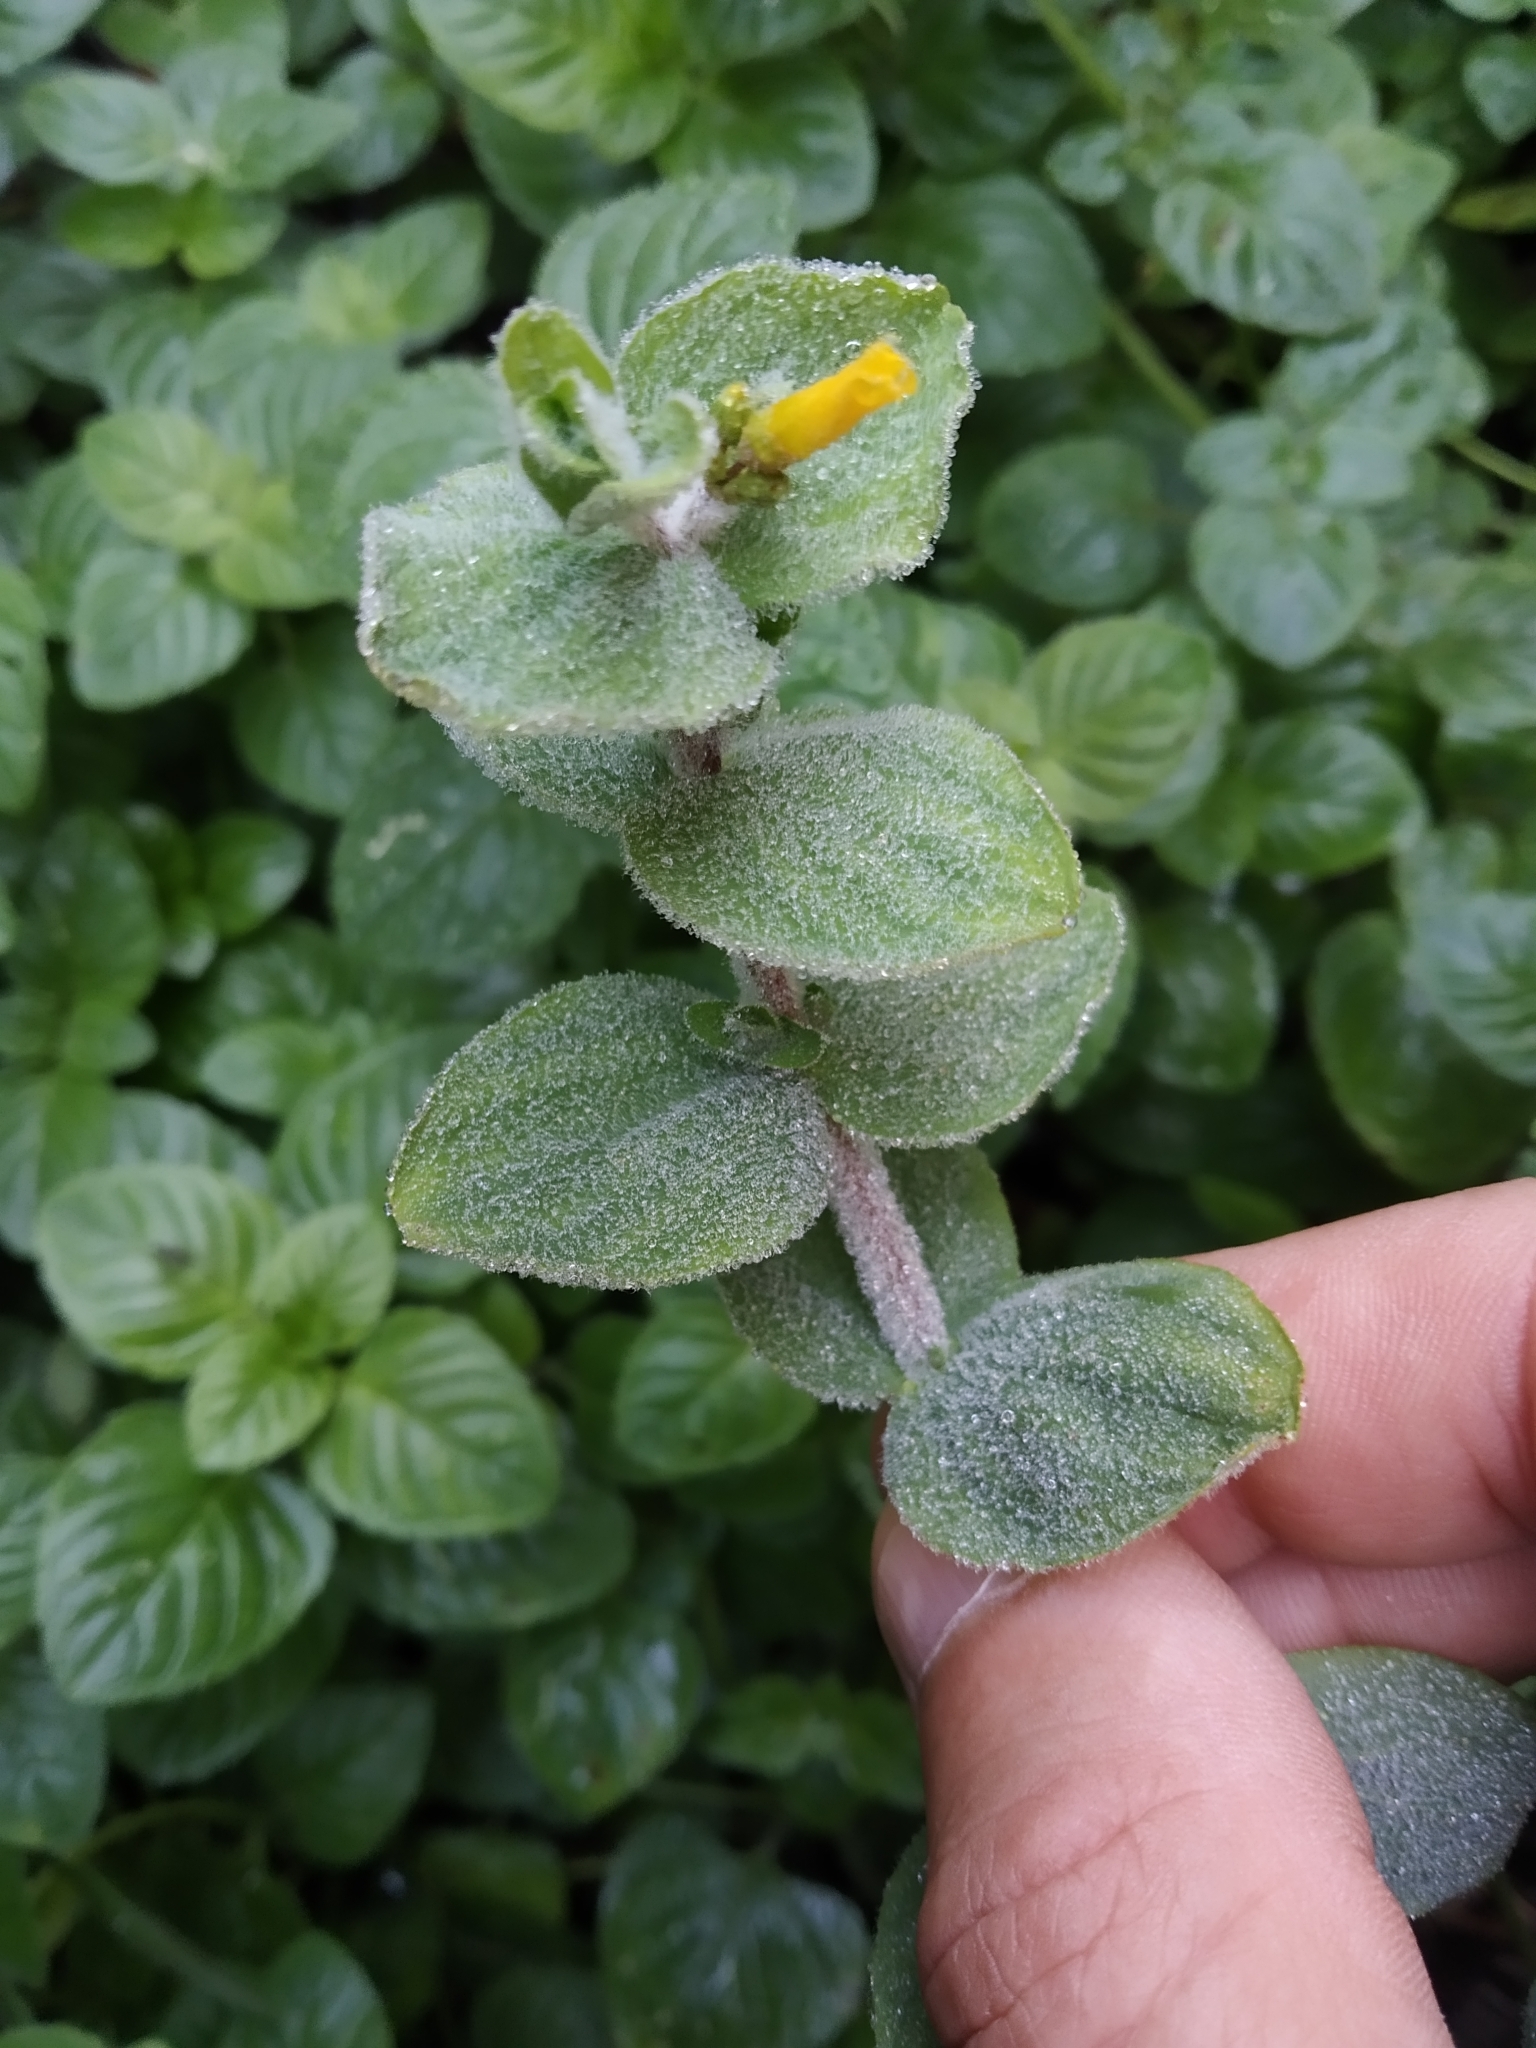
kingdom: Plantae
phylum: Tracheophyta
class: Magnoliopsida
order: Malpighiales
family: Hypericaceae
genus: Hypericum
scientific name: Hypericum elodes
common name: Marsh st. john's-wort
